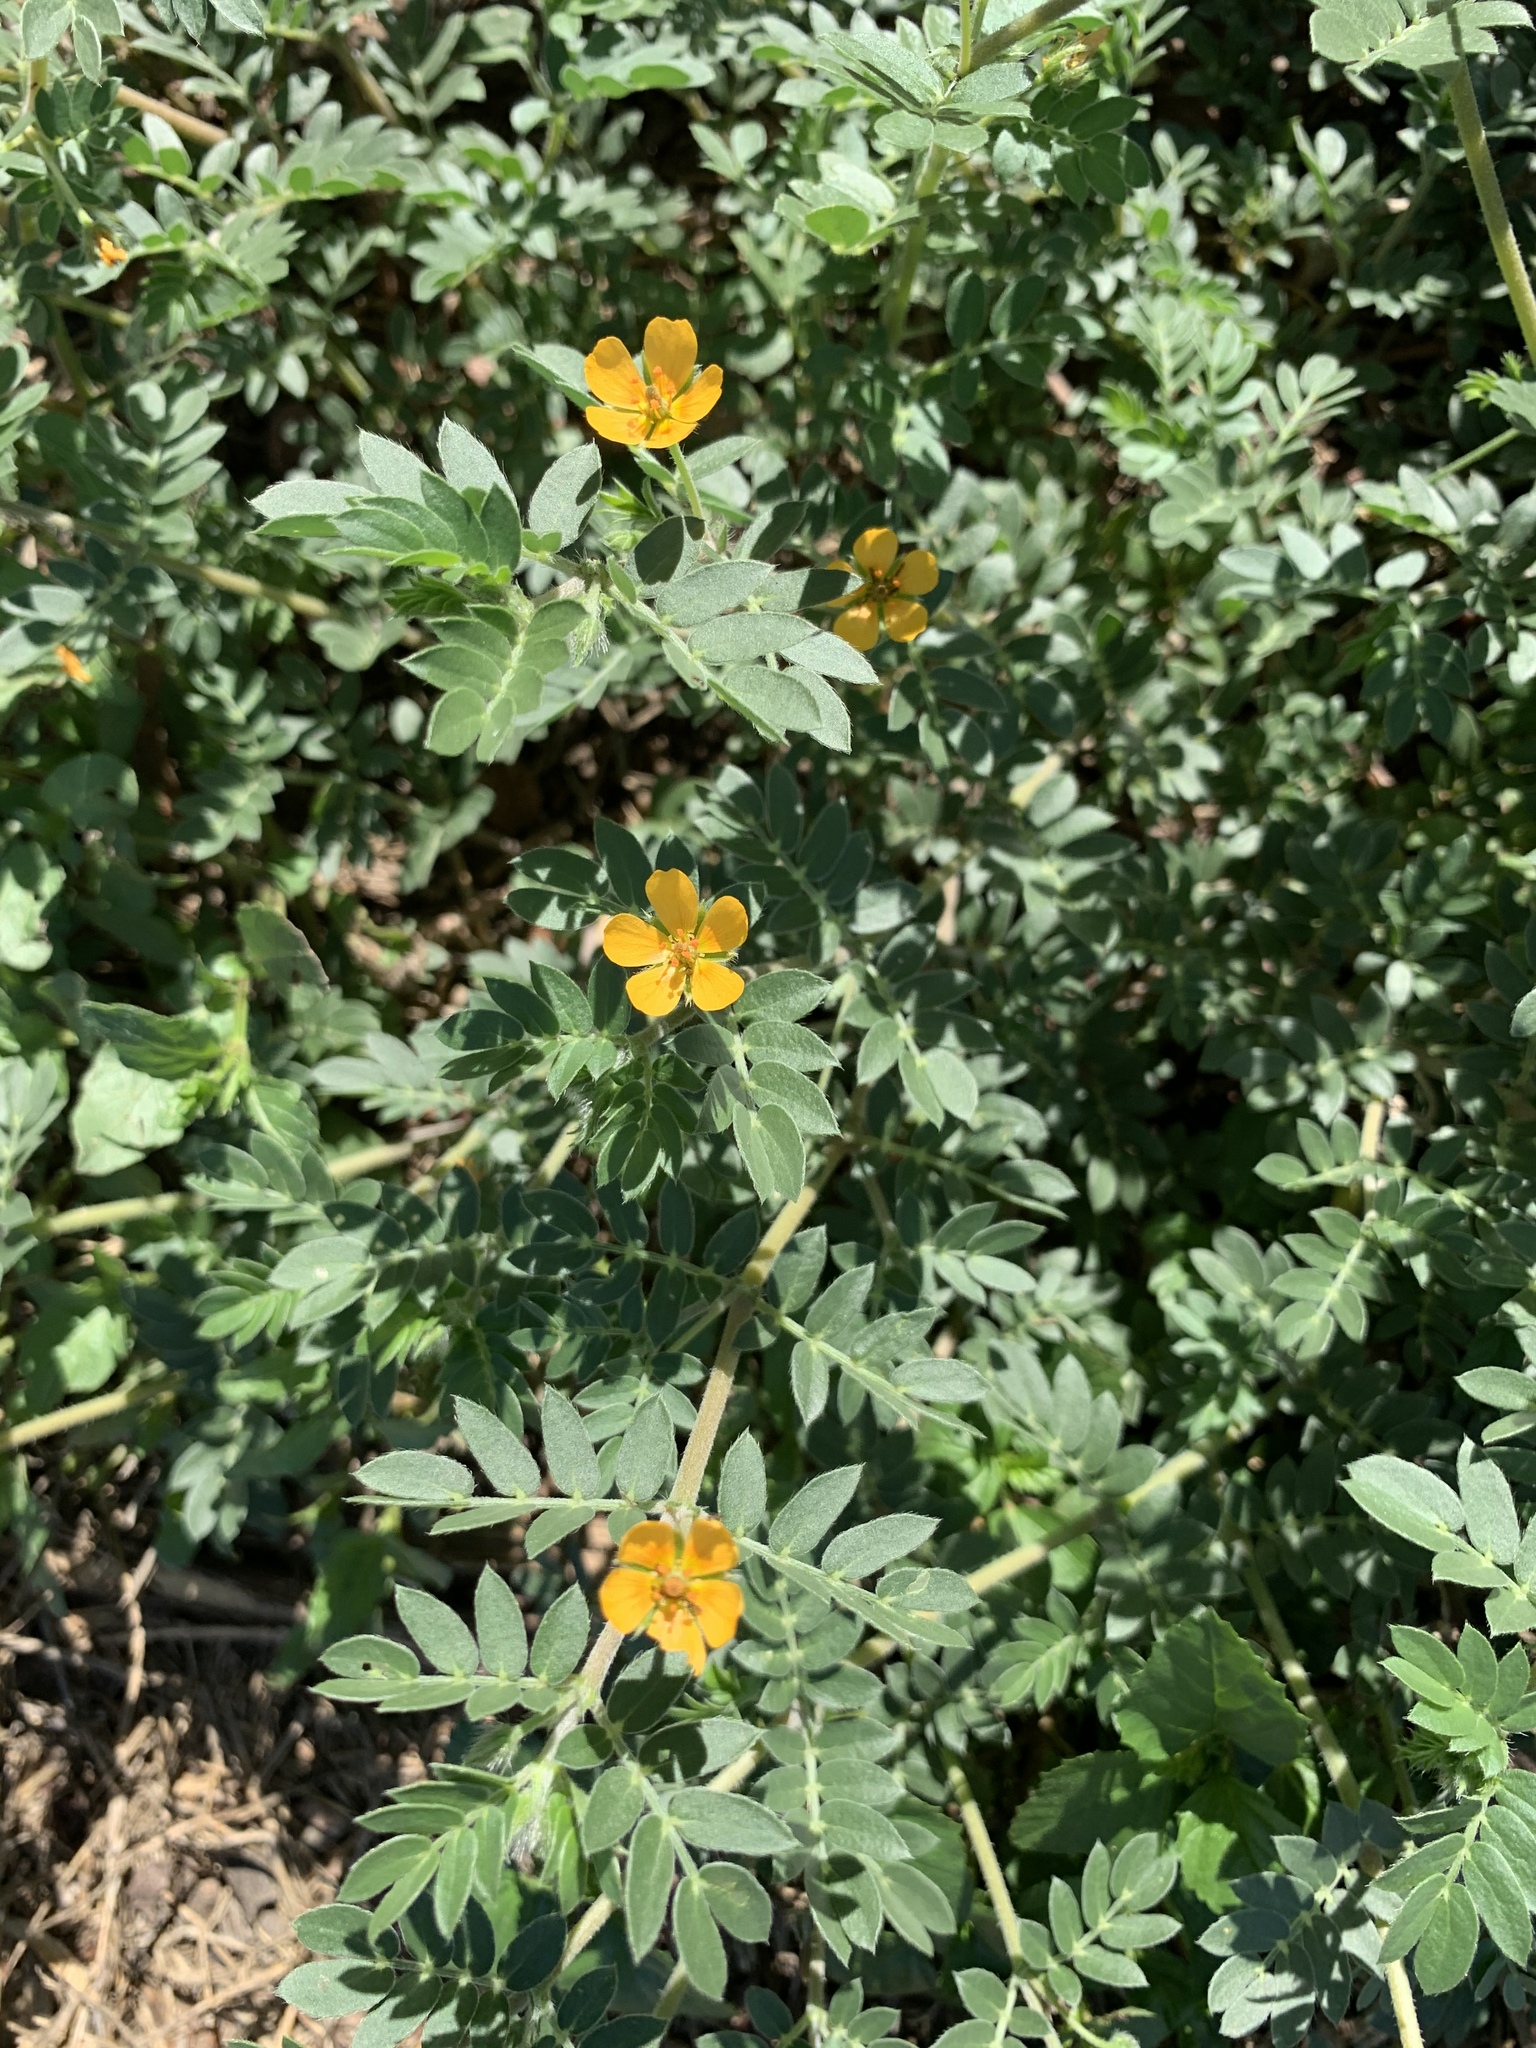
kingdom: Plantae
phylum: Tracheophyta
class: Magnoliopsida
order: Zygophyllales
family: Zygophyllaceae
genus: Tribulus
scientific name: Tribulus terrestris
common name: Puncturevine
